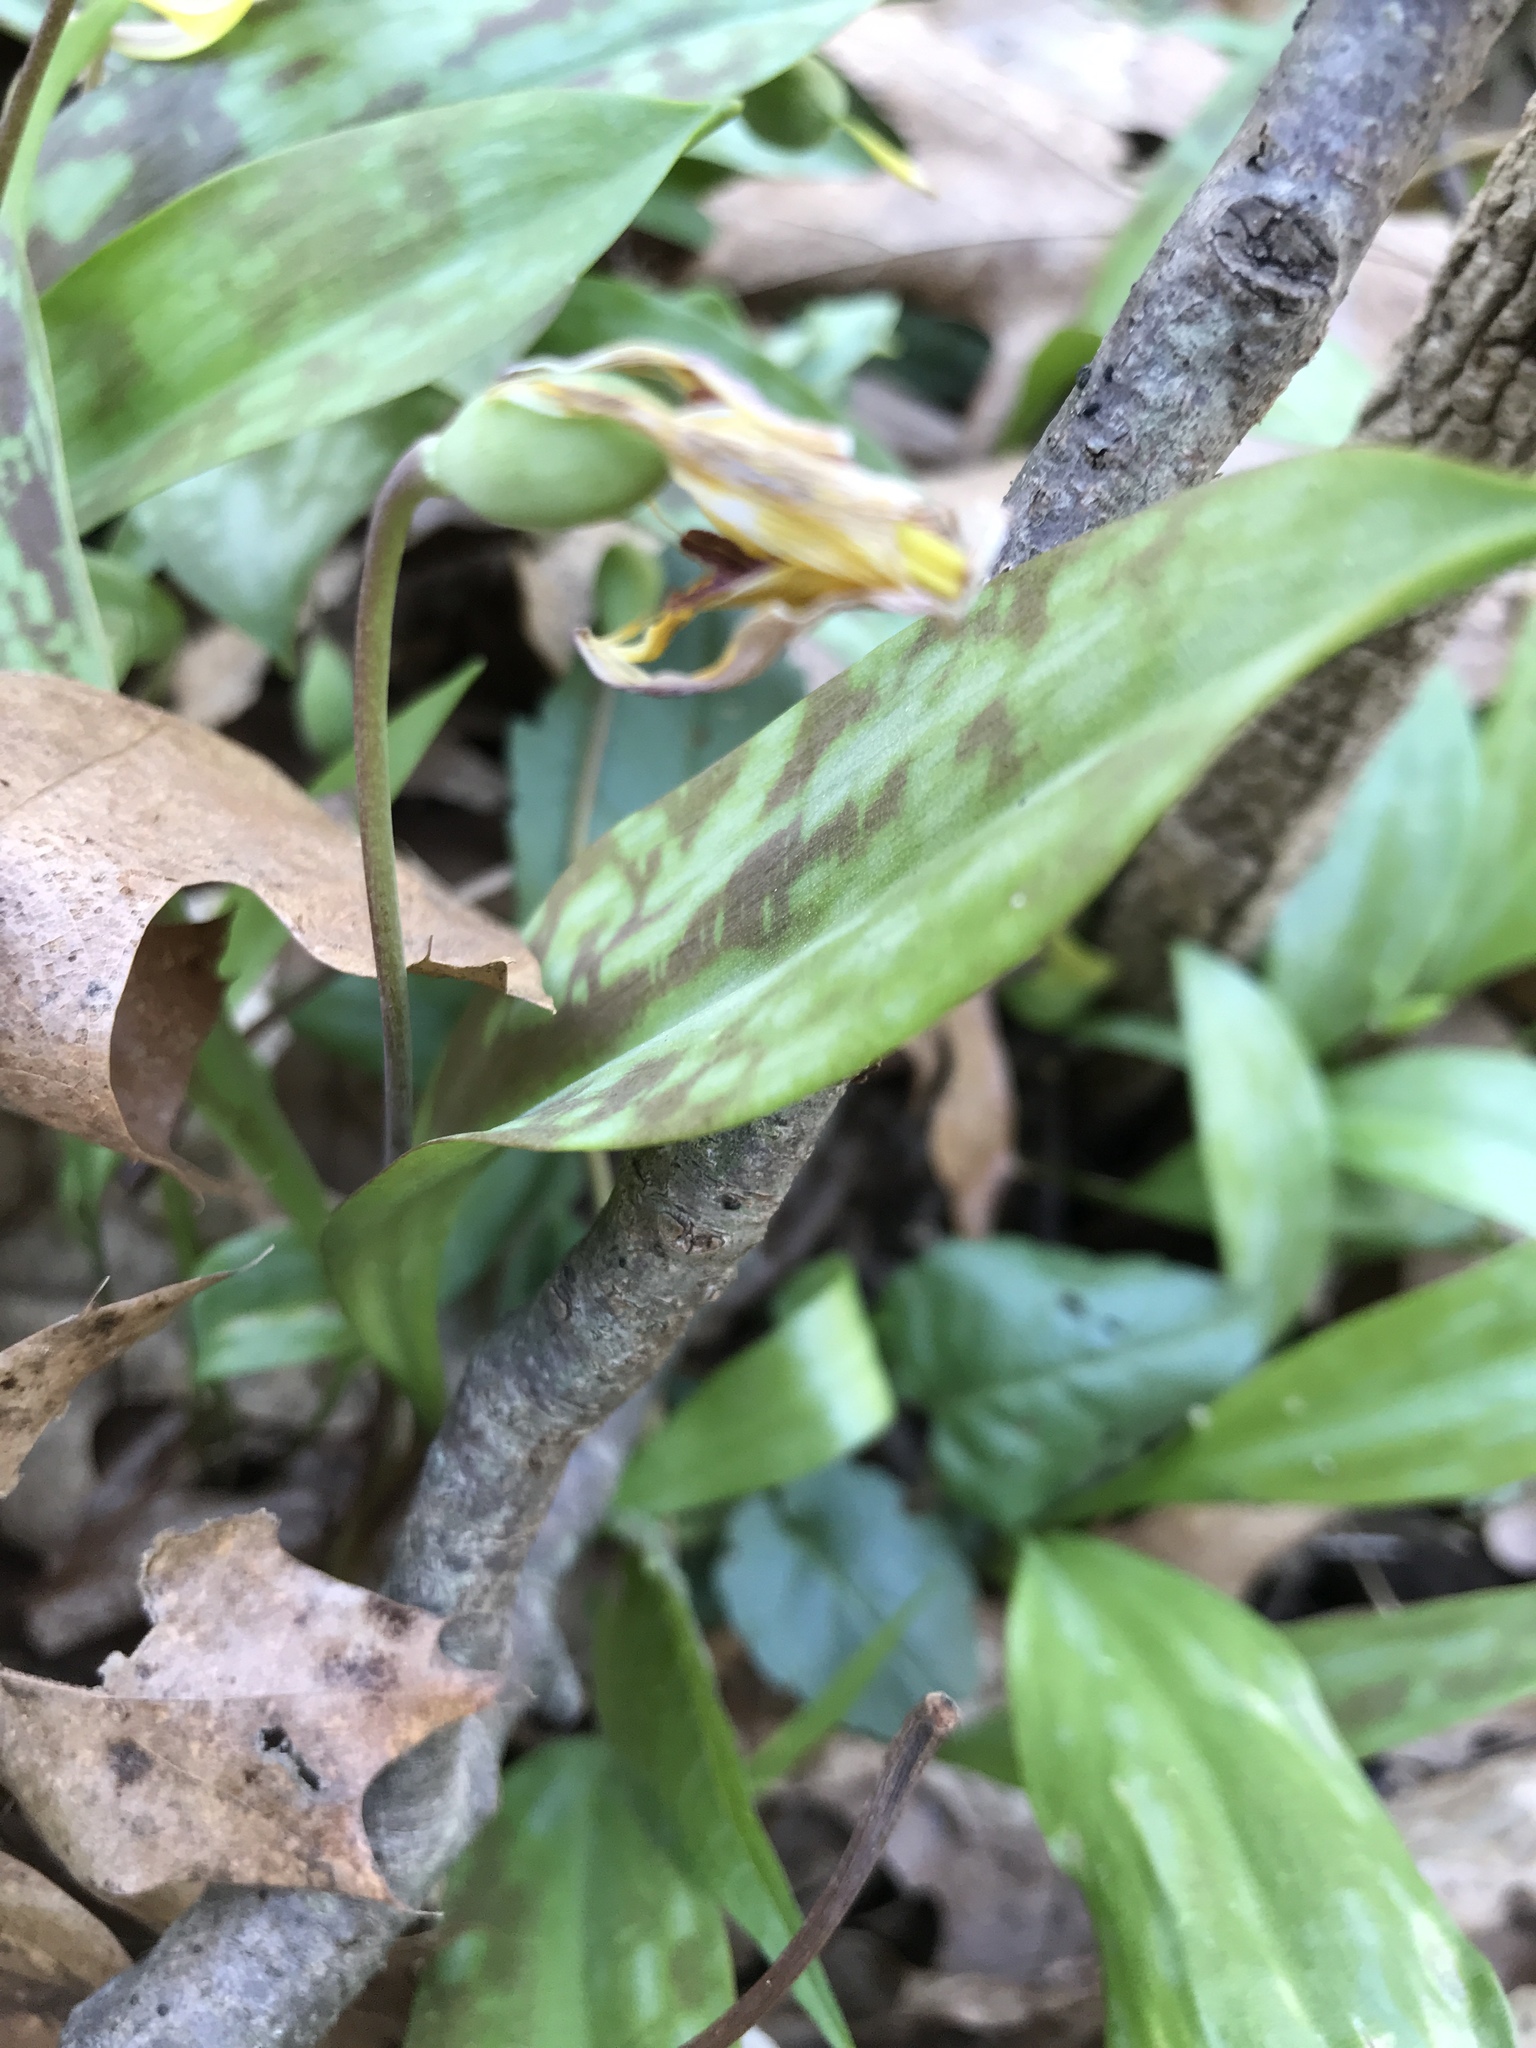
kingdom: Plantae
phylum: Tracheophyta
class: Liliopsida
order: Liliales
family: Liliaceae
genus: Erythronium
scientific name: Erythronium americanum
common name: Yellow adder's-tongue
